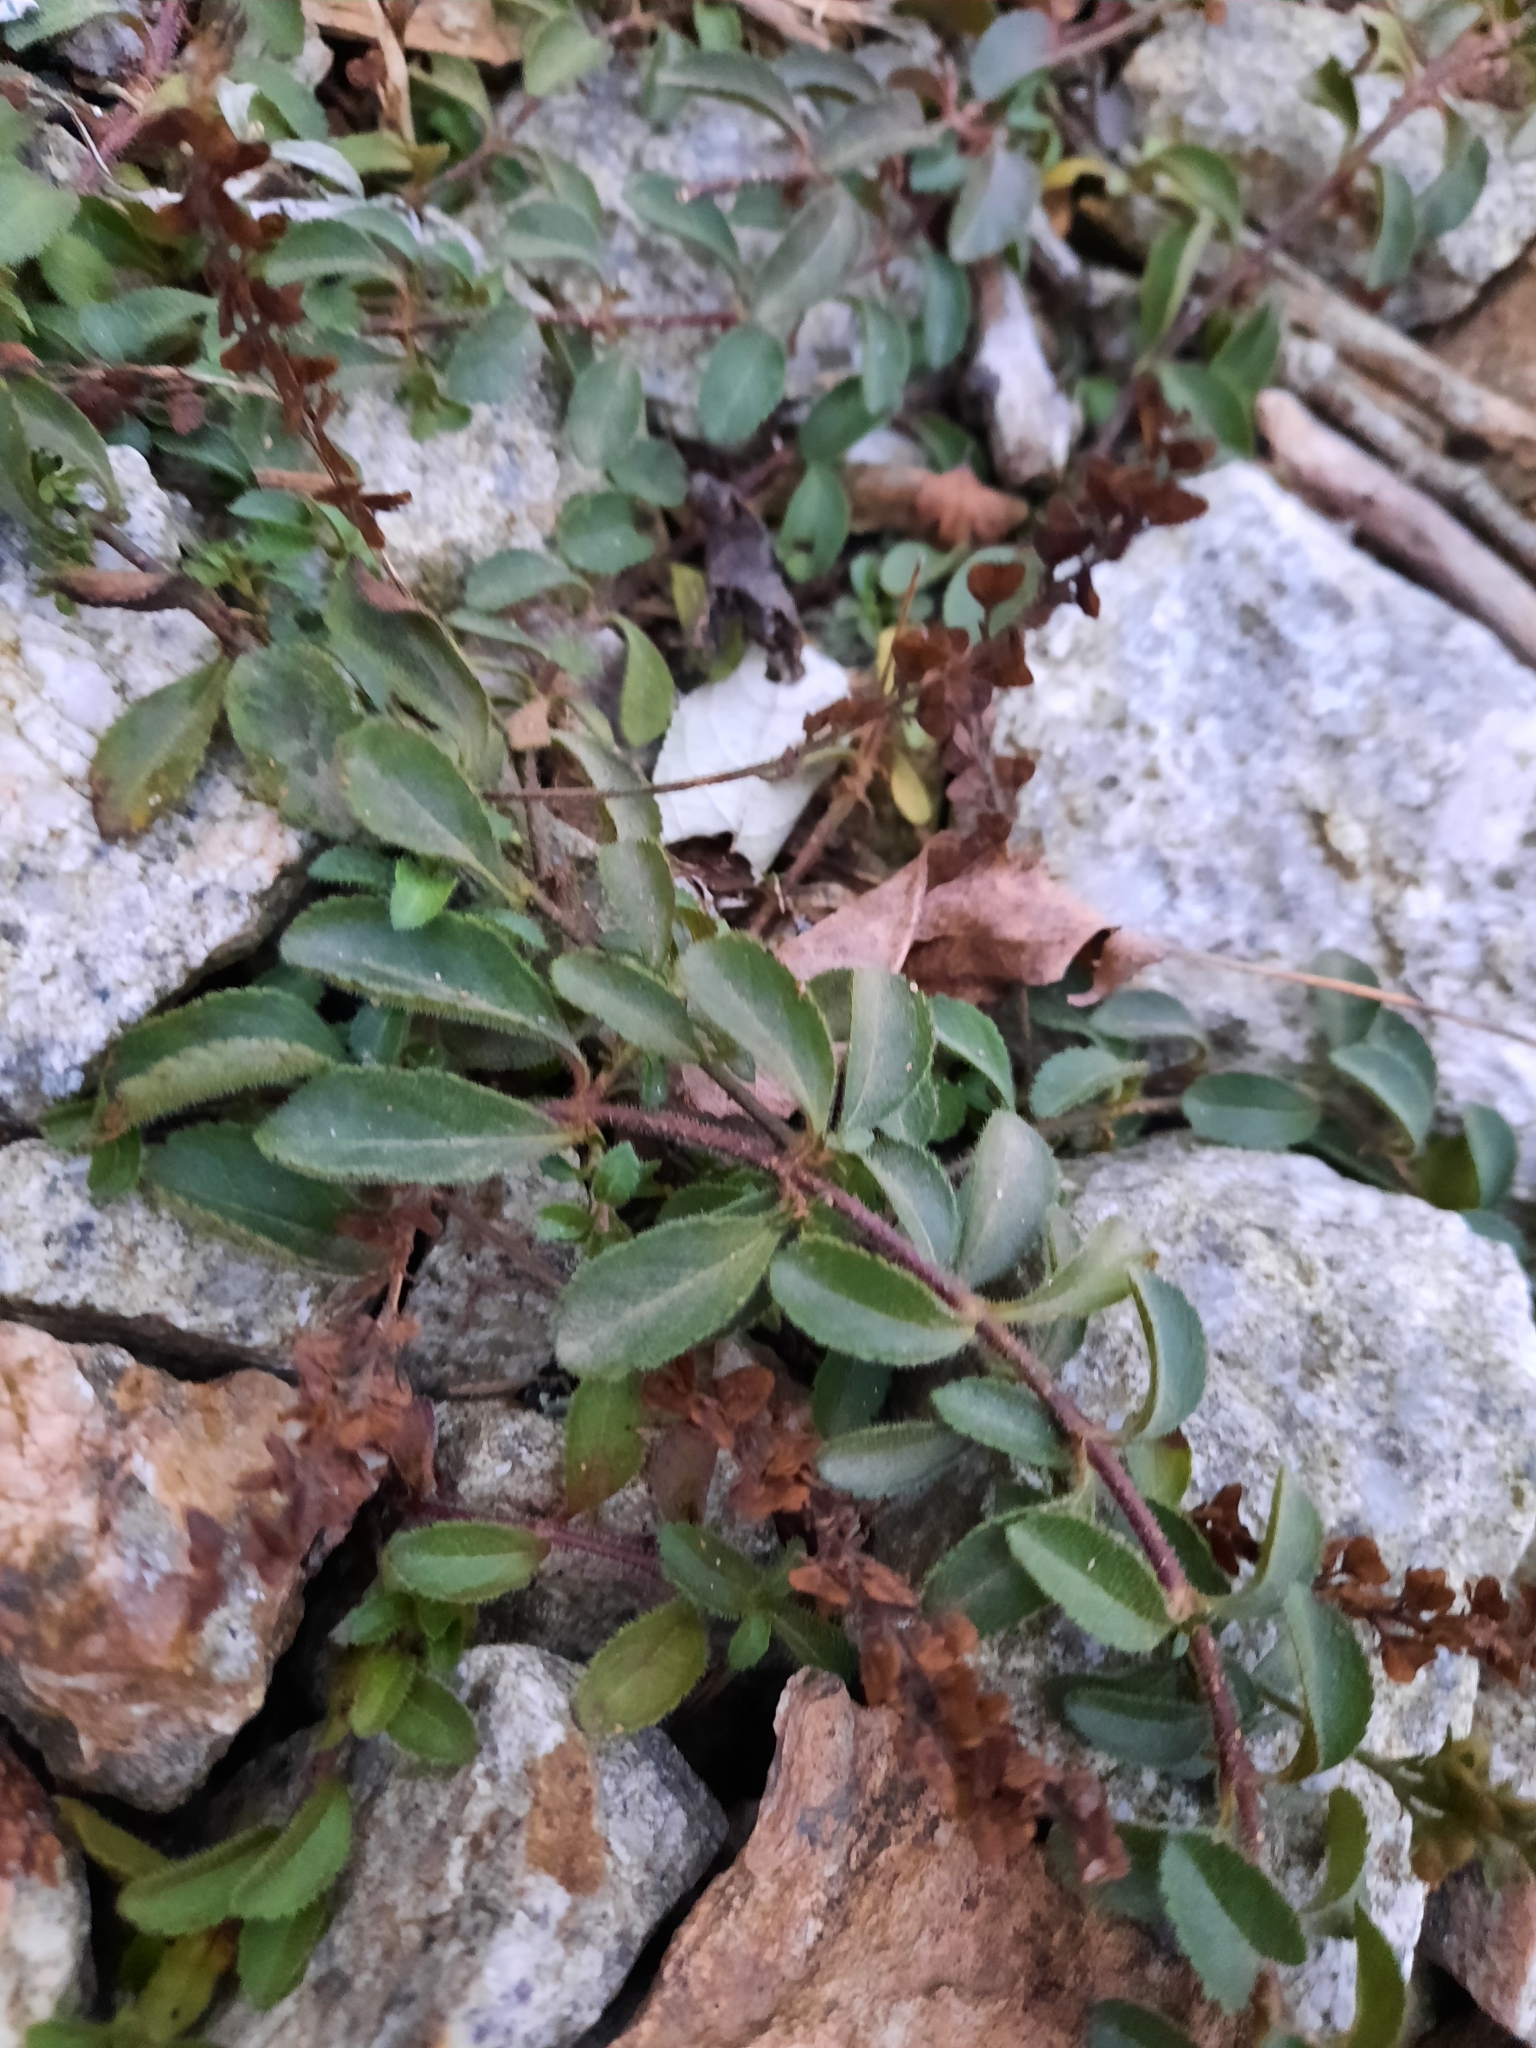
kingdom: Plantae
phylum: Tracheophyta
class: Magnoliopsida
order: Lamiales
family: Plantaginaceae
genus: Veronica
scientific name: Veronica officinalis
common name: Common speedwell
